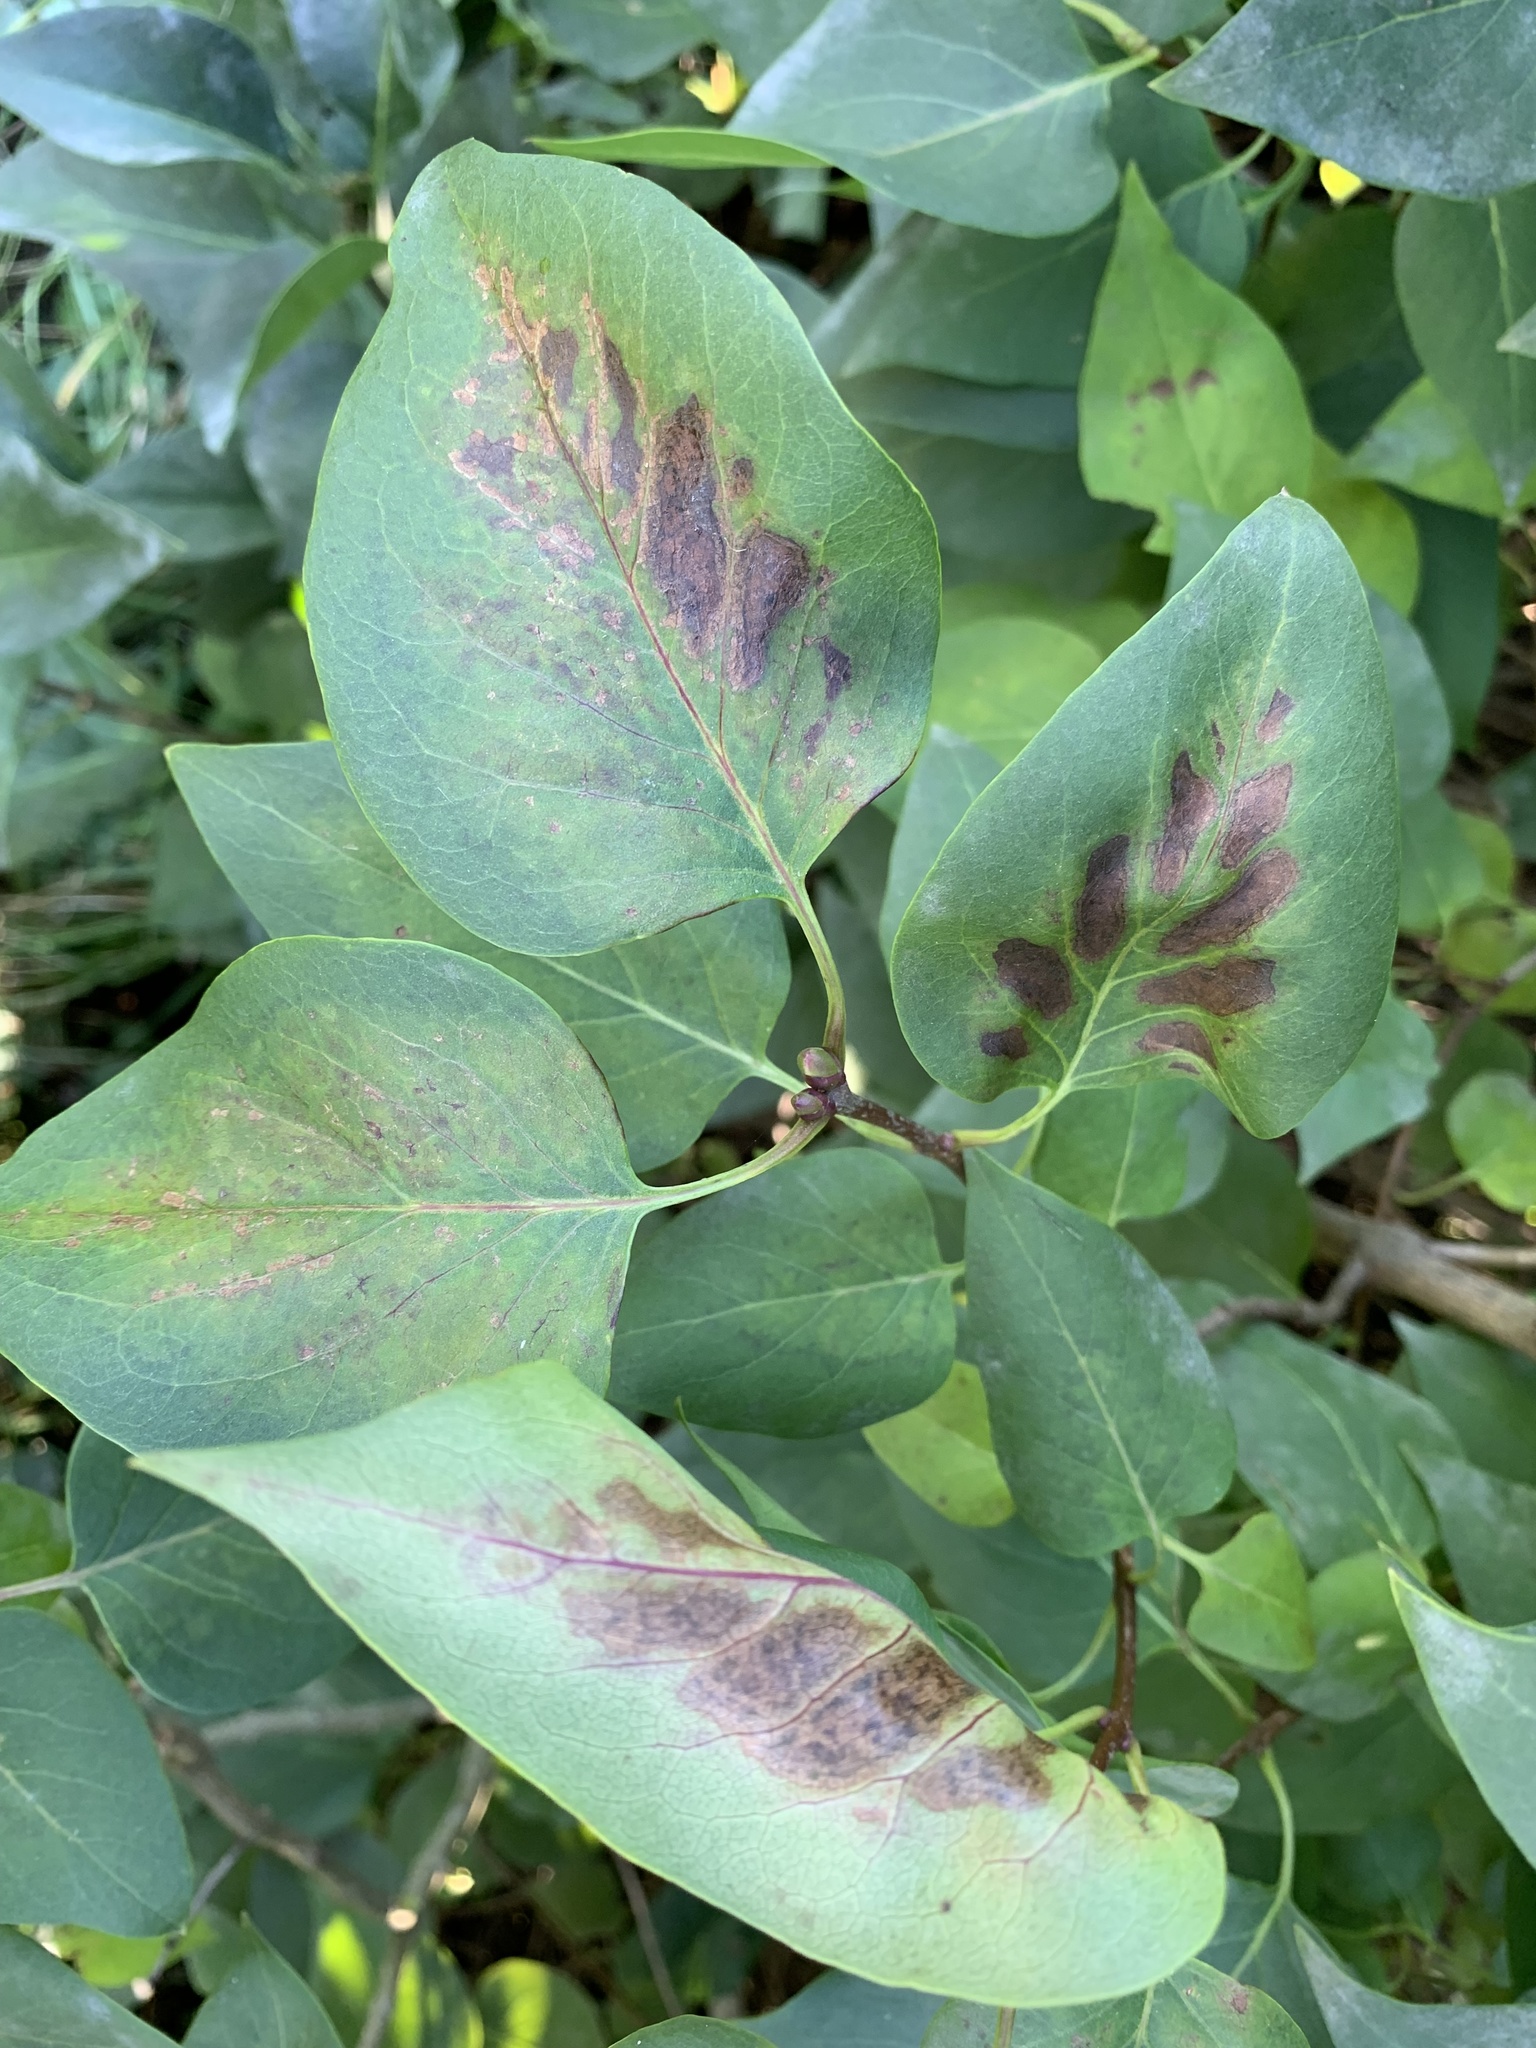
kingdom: Plantae
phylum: Tracheophyta
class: Magnoliopsida
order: Lamiales
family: Oleaceae
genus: Syringa
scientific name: Syringa vulgaris
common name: Common lilac
